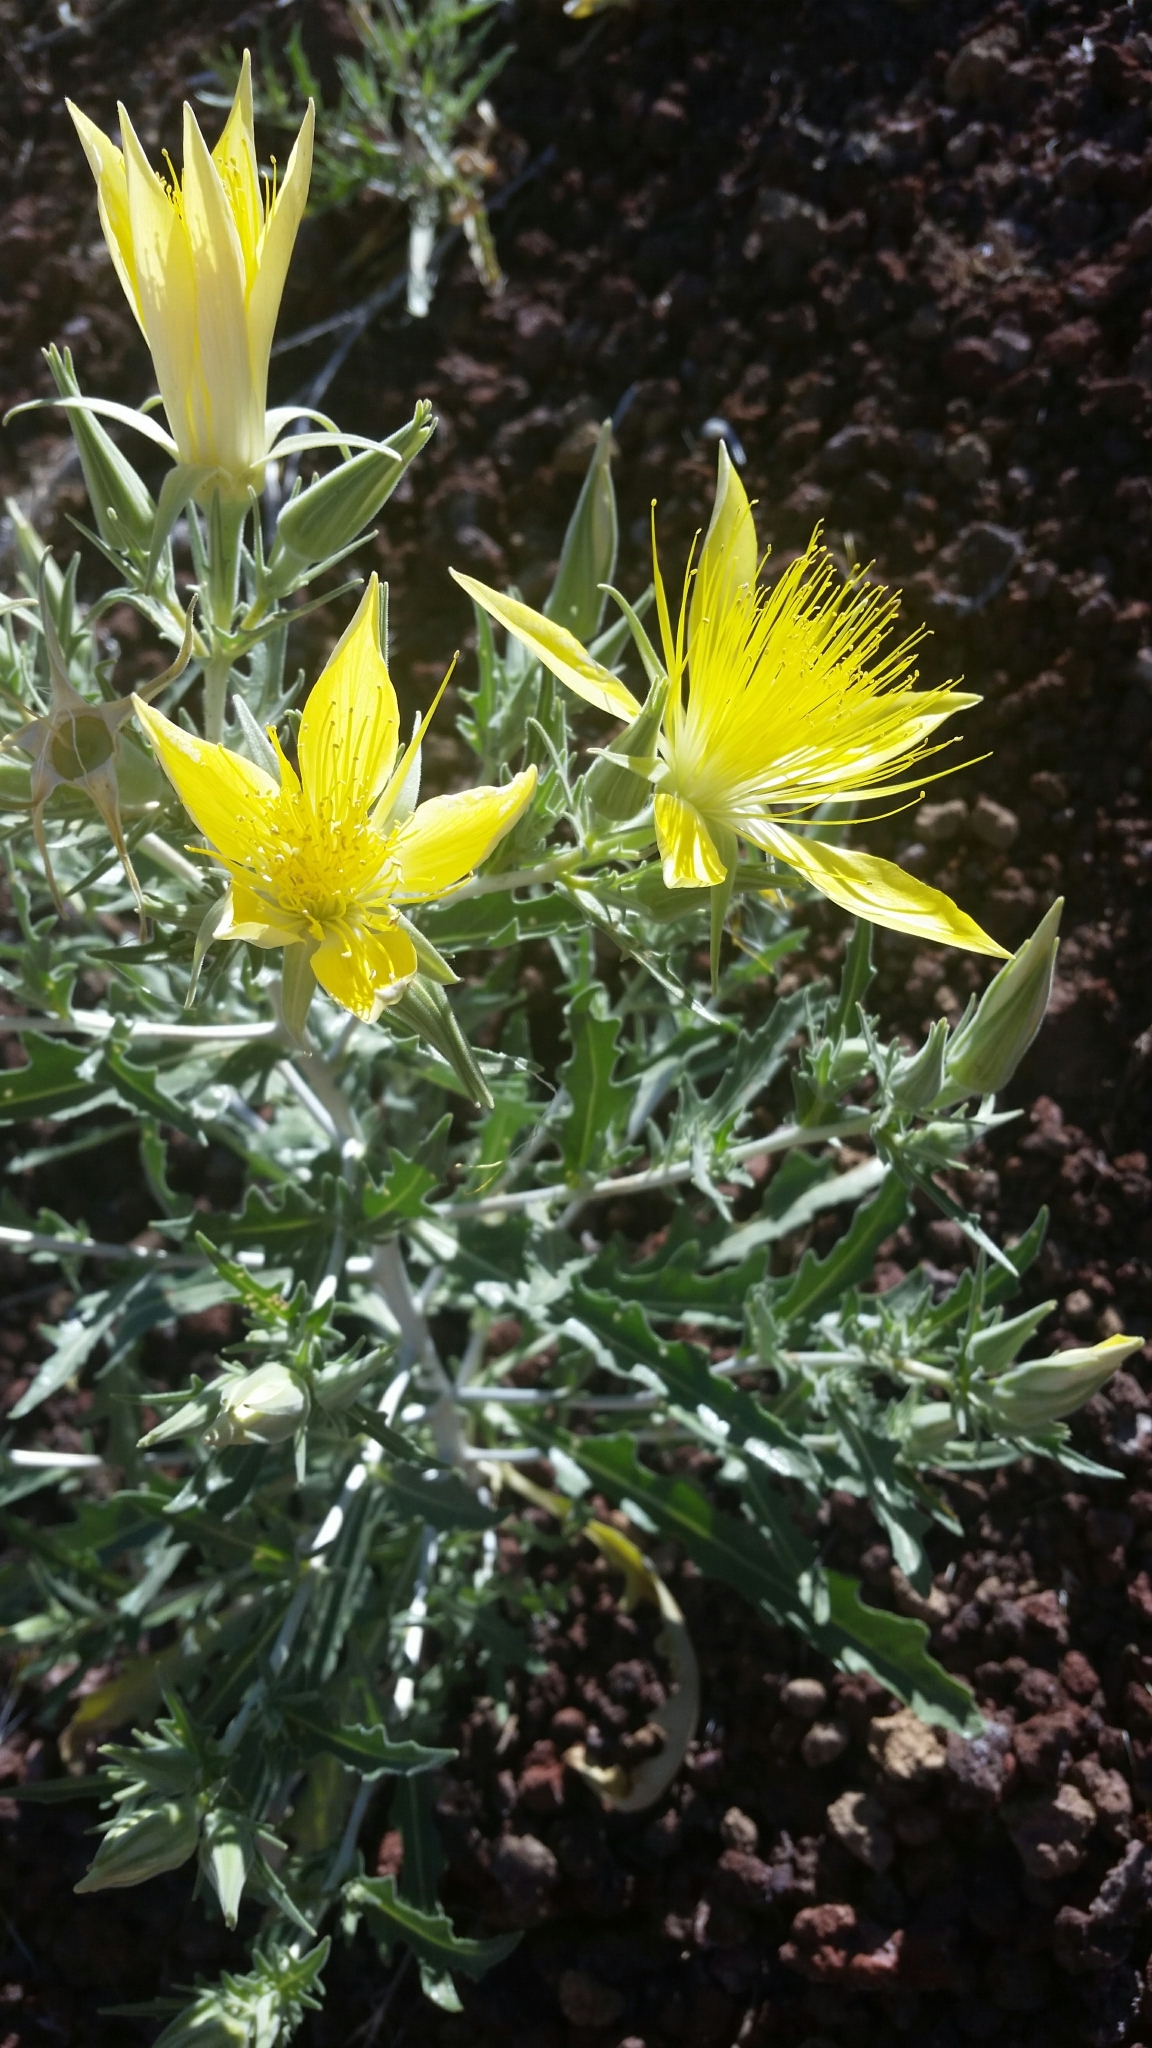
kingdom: Plantae
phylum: Tracheophyta
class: Magnoliopsida
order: Cornales
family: Loasaceae
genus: Mentzelia
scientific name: Mentzelia laevicaulis
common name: Smooth-stem blazingstar
